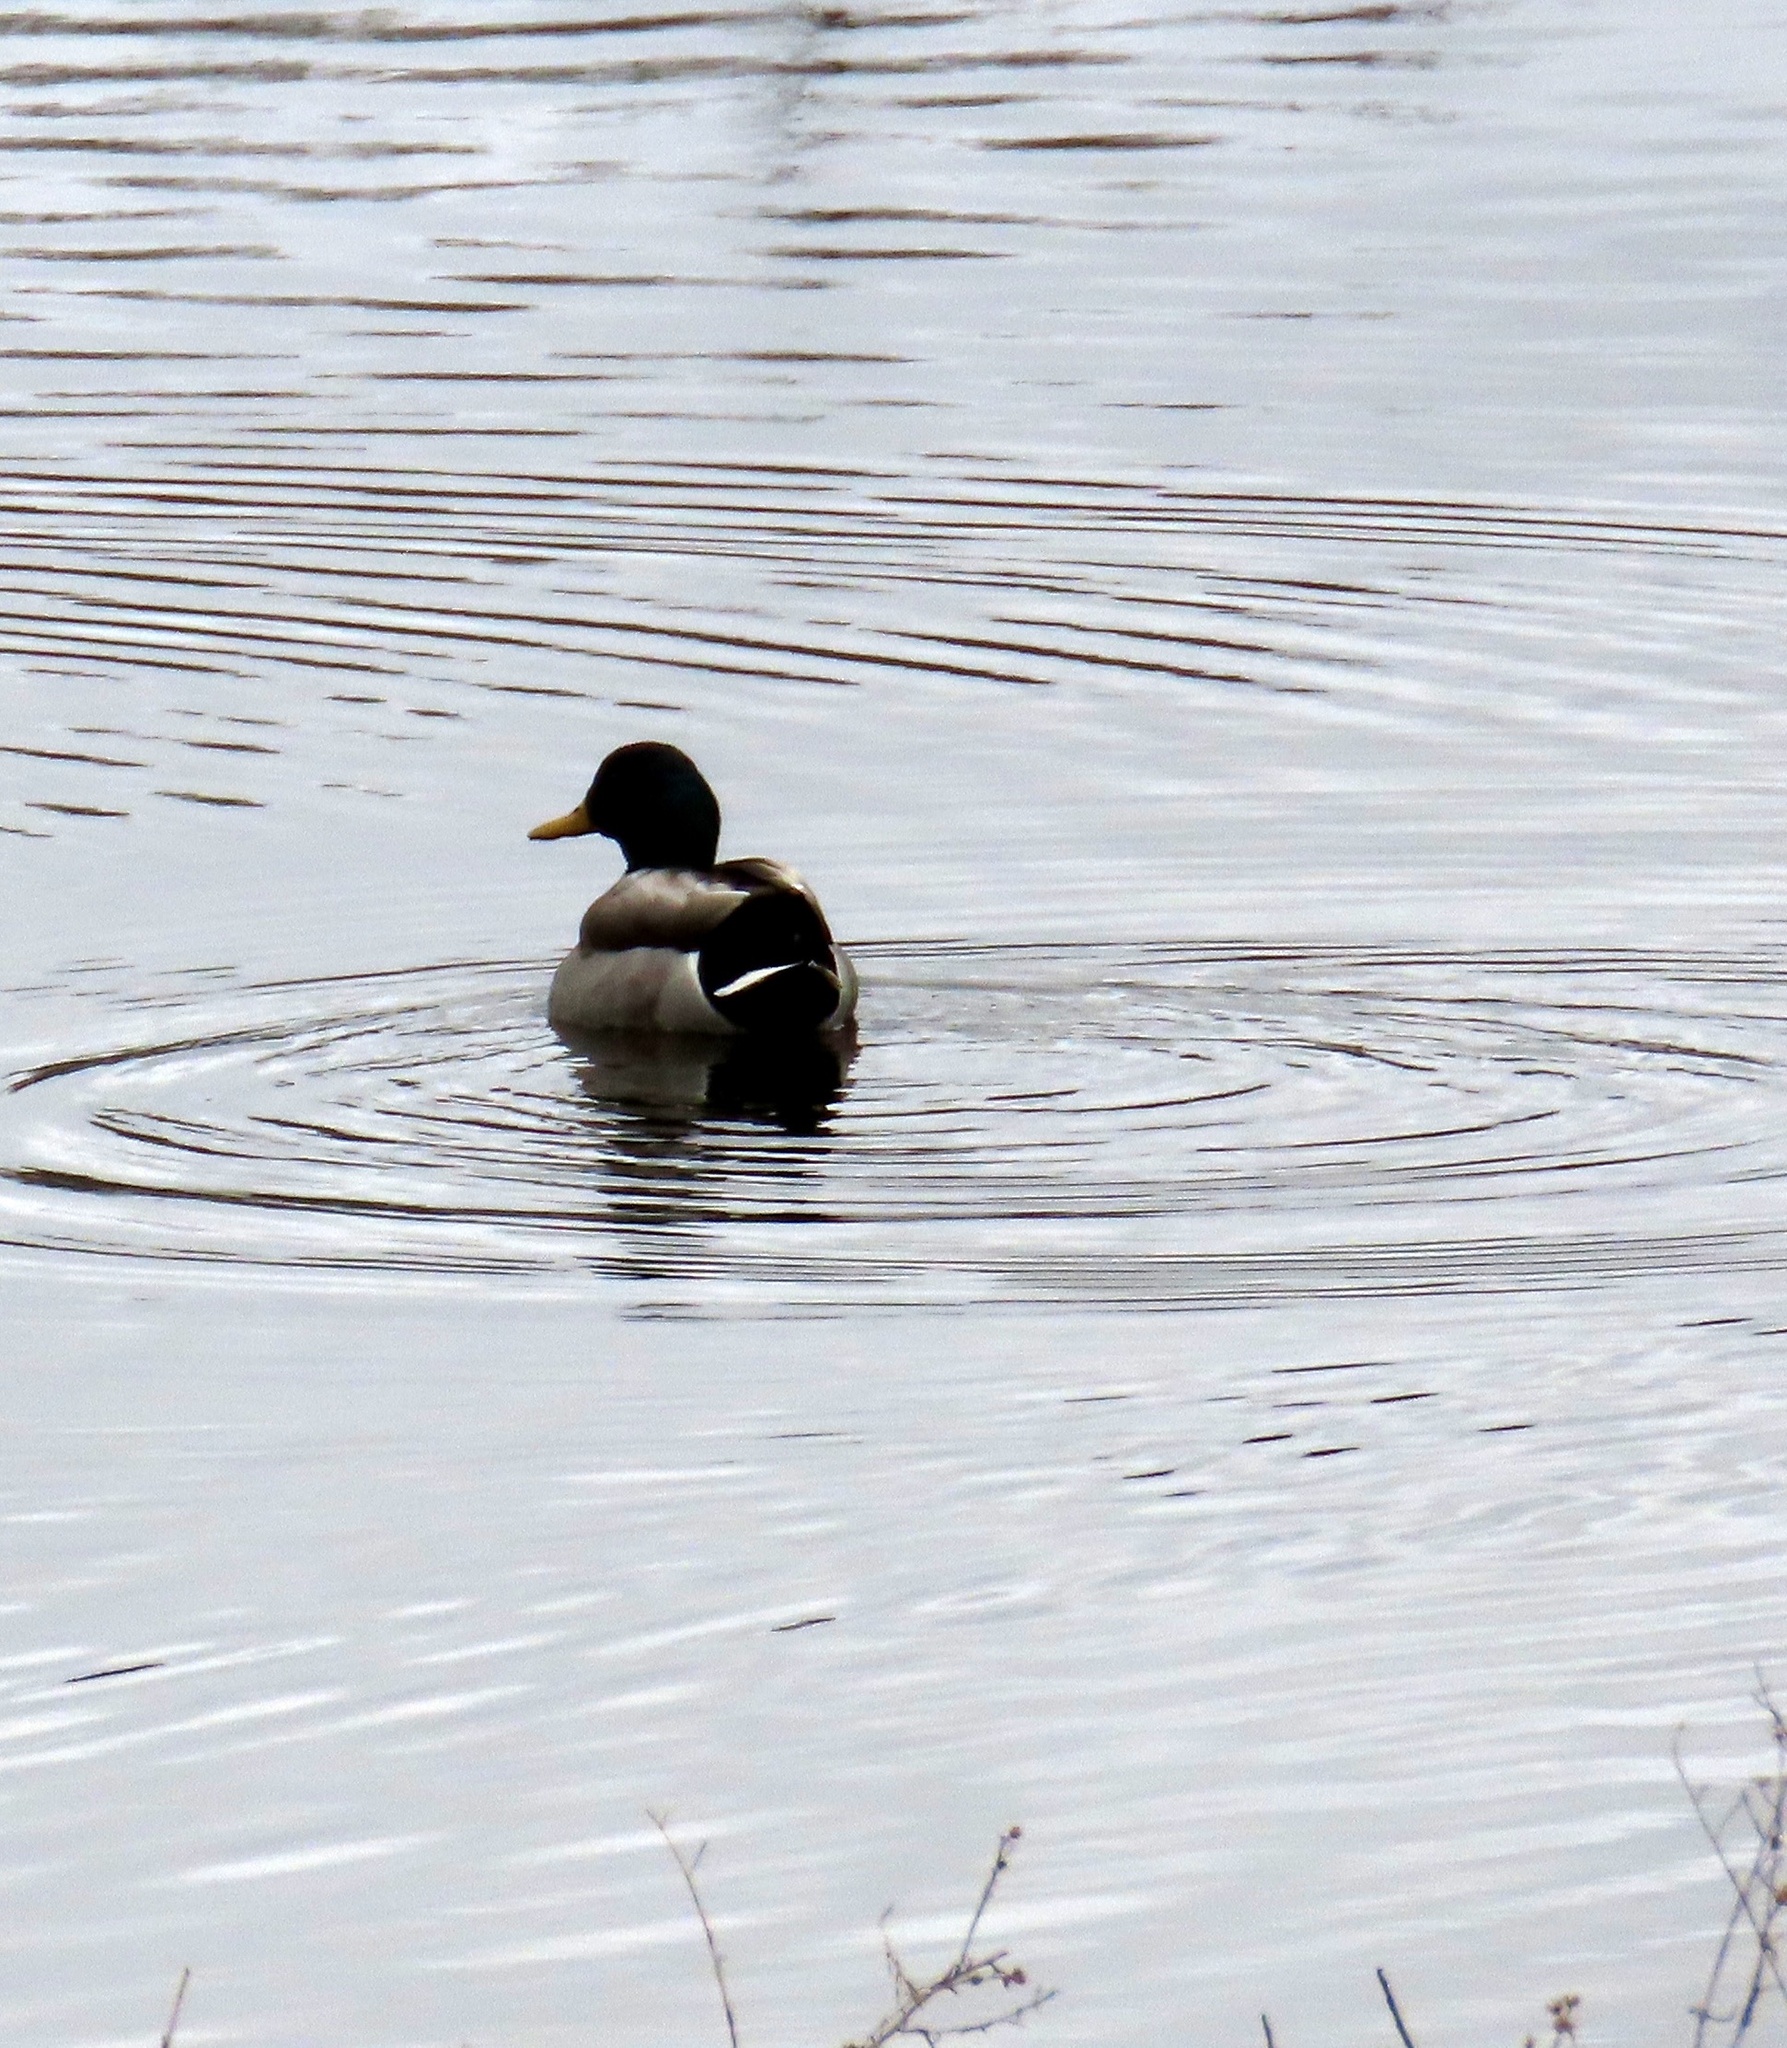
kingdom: Animalia
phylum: Chordata
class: Aves
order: Anseriformes
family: Anatidae
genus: Anas
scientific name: Anas platyrhynchos
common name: Mallard
